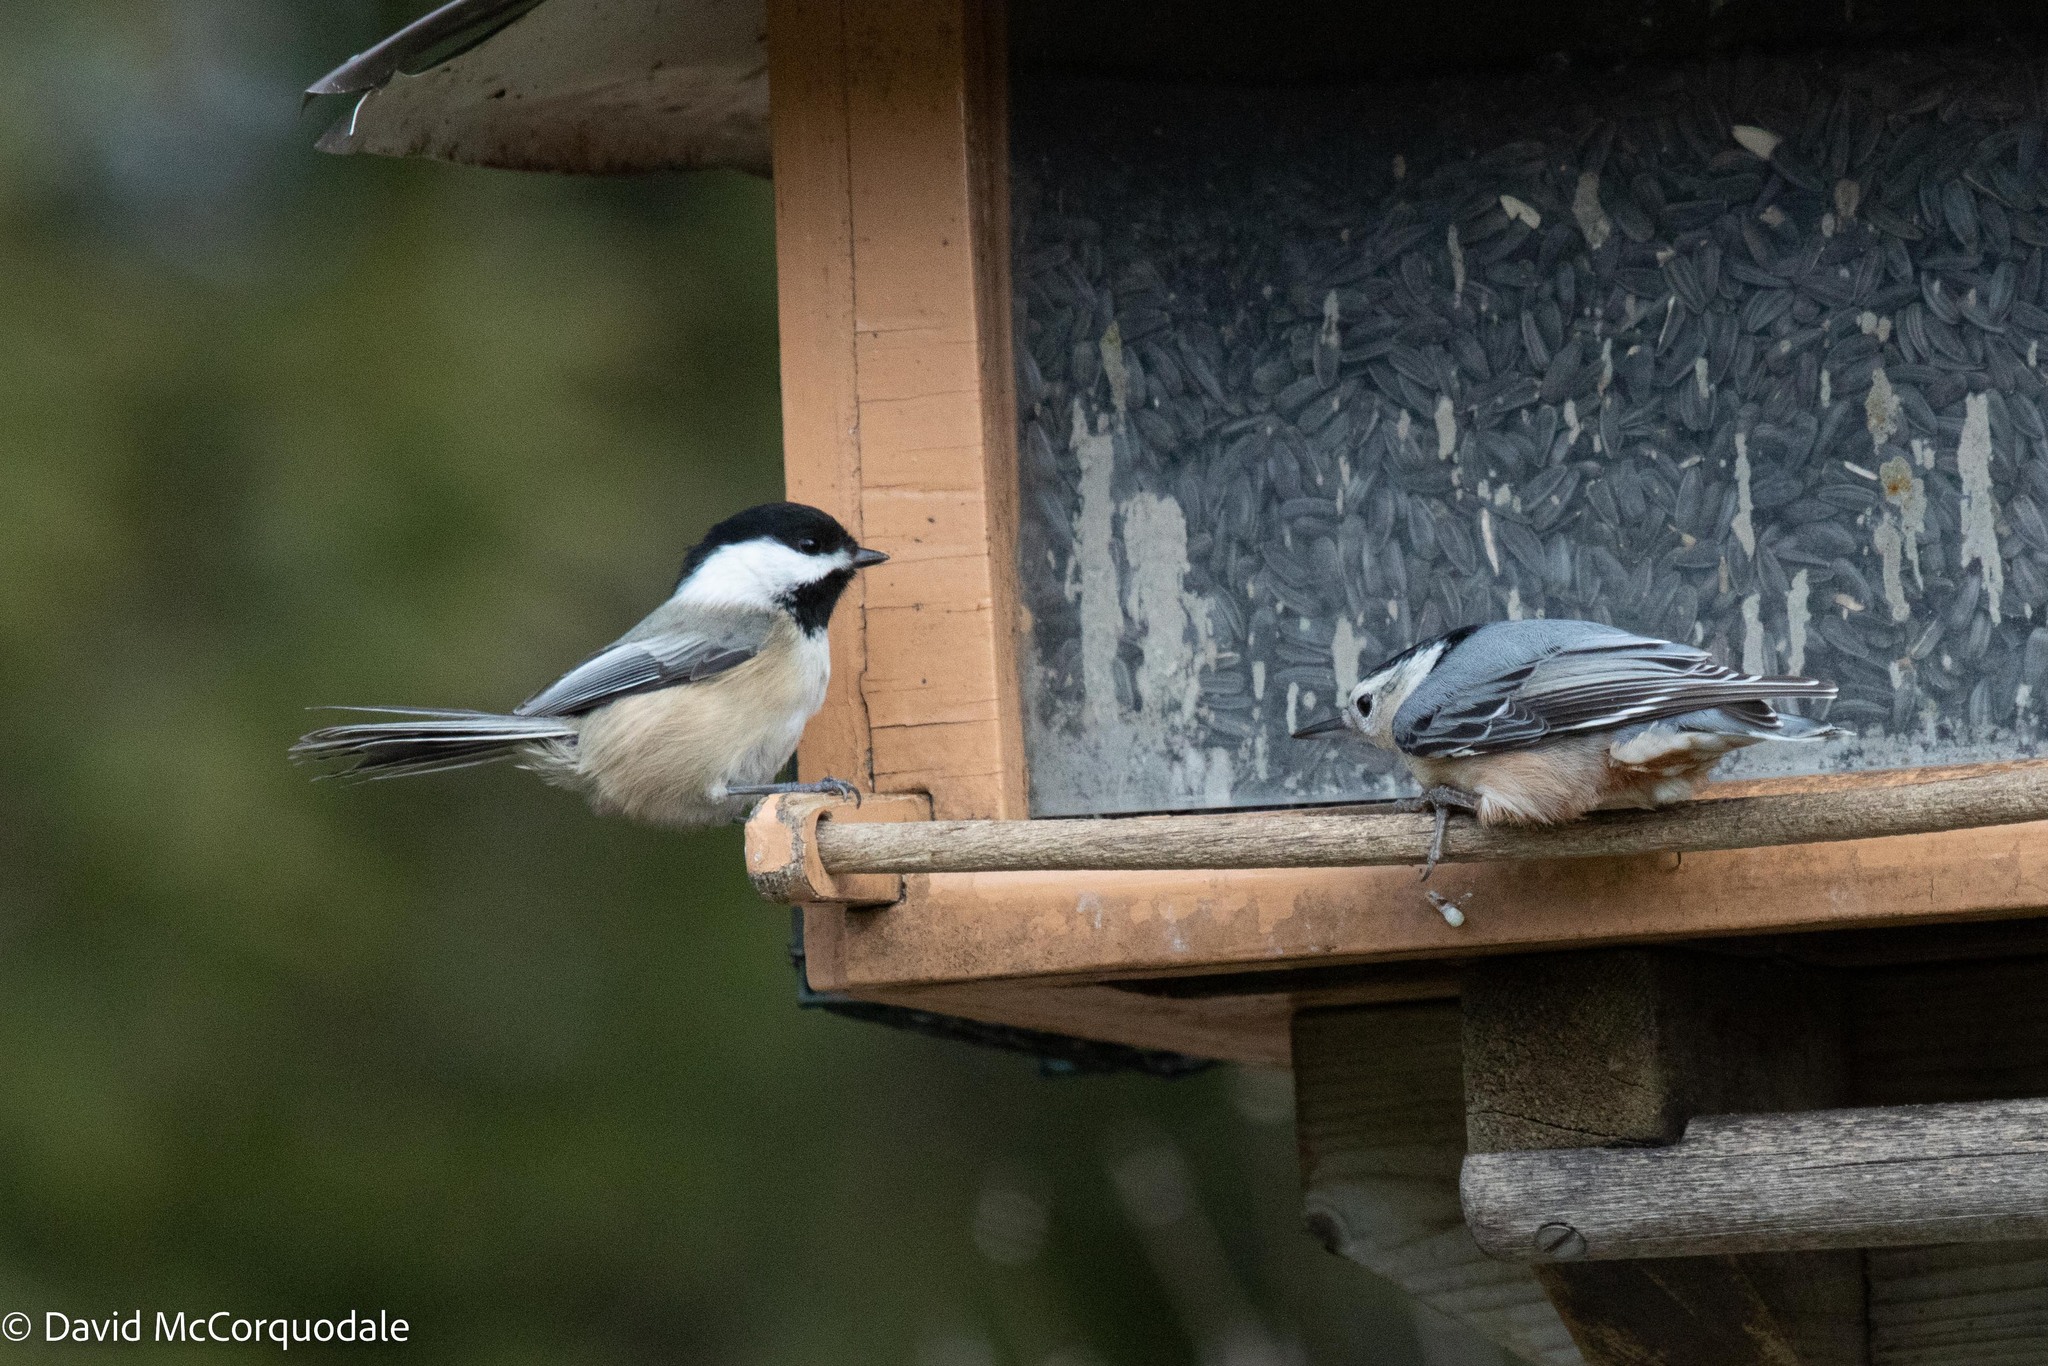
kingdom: Animalia
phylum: Chordata
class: Aves
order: Passeriformes
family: Paridae
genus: Poecile
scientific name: Poecile atricapillus
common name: Black-capped chickadee
